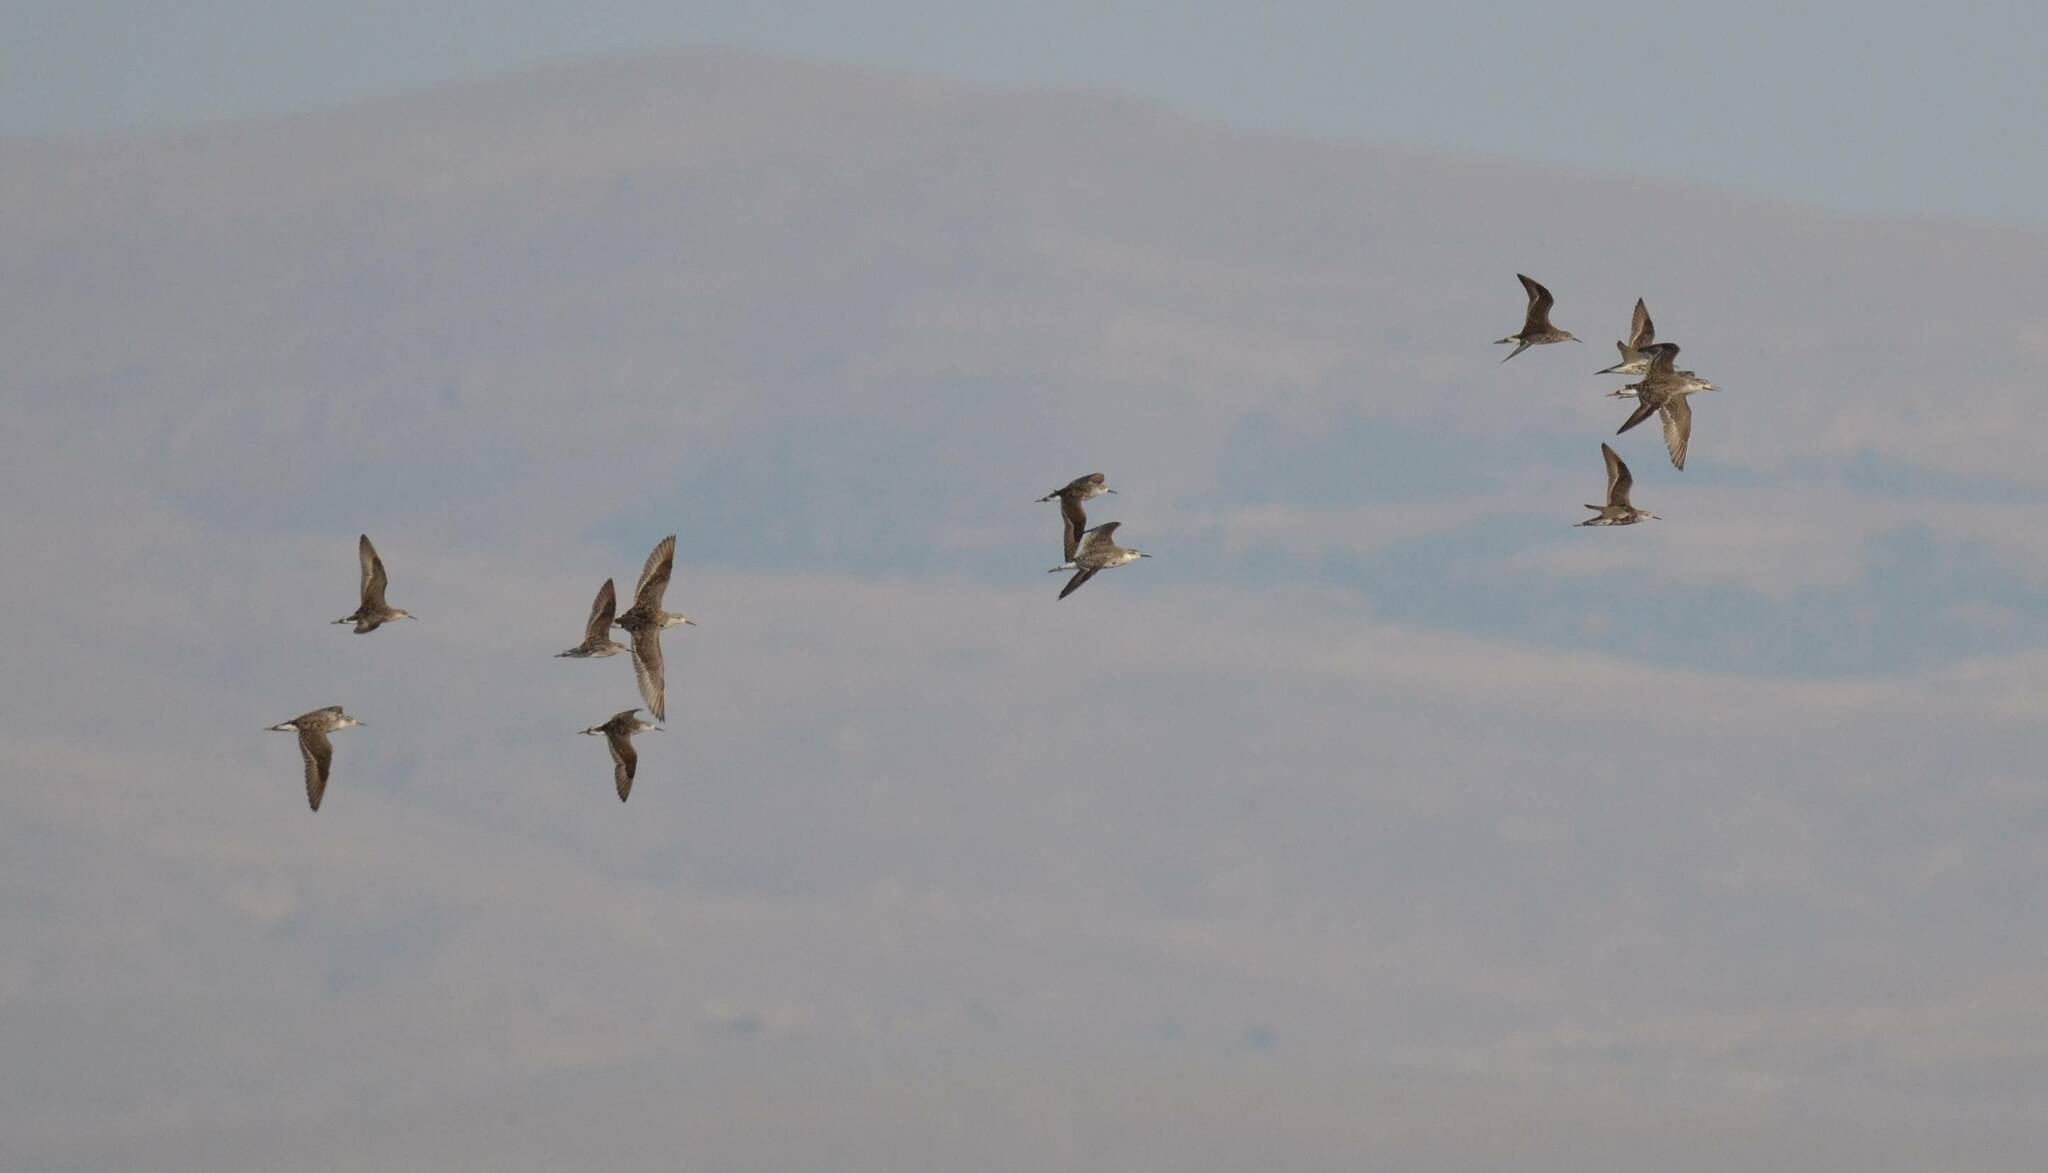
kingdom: Animalia
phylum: Chordata
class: Aves
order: Charadriiformes
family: Scolopacidae
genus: Calidris
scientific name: Calidris pugnax
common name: Ruff
